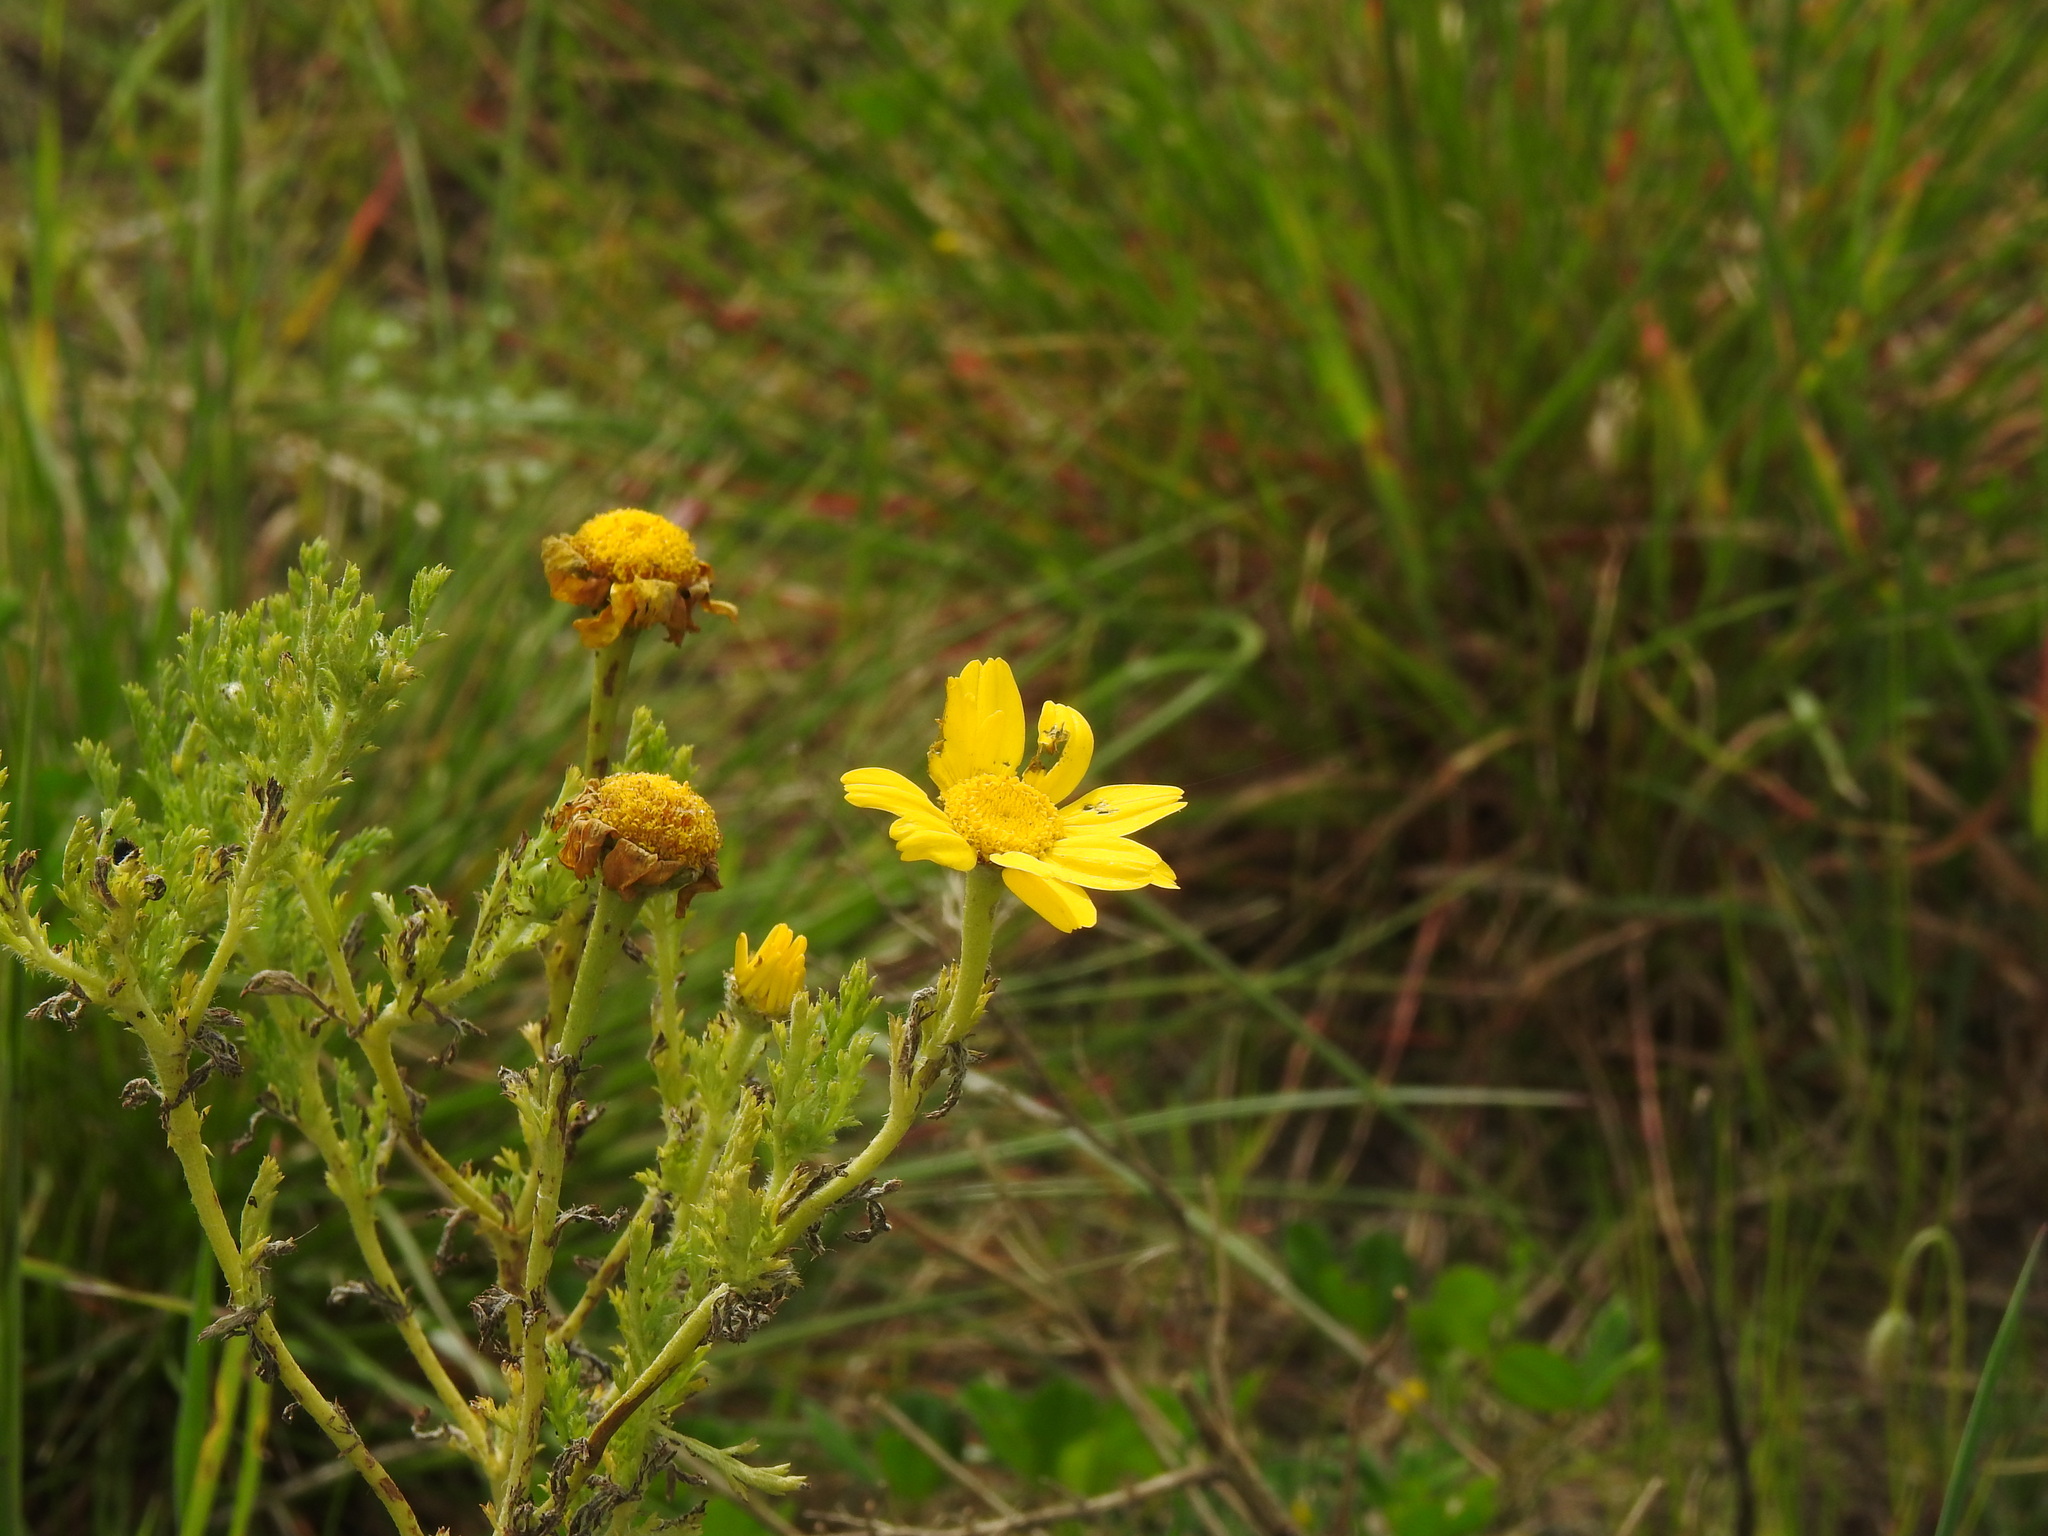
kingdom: Plantae
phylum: Tracheophyta
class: Magnoliopsida
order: Asterales
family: Asteraceae
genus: Anacyclus
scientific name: Anacyclus radiatus
